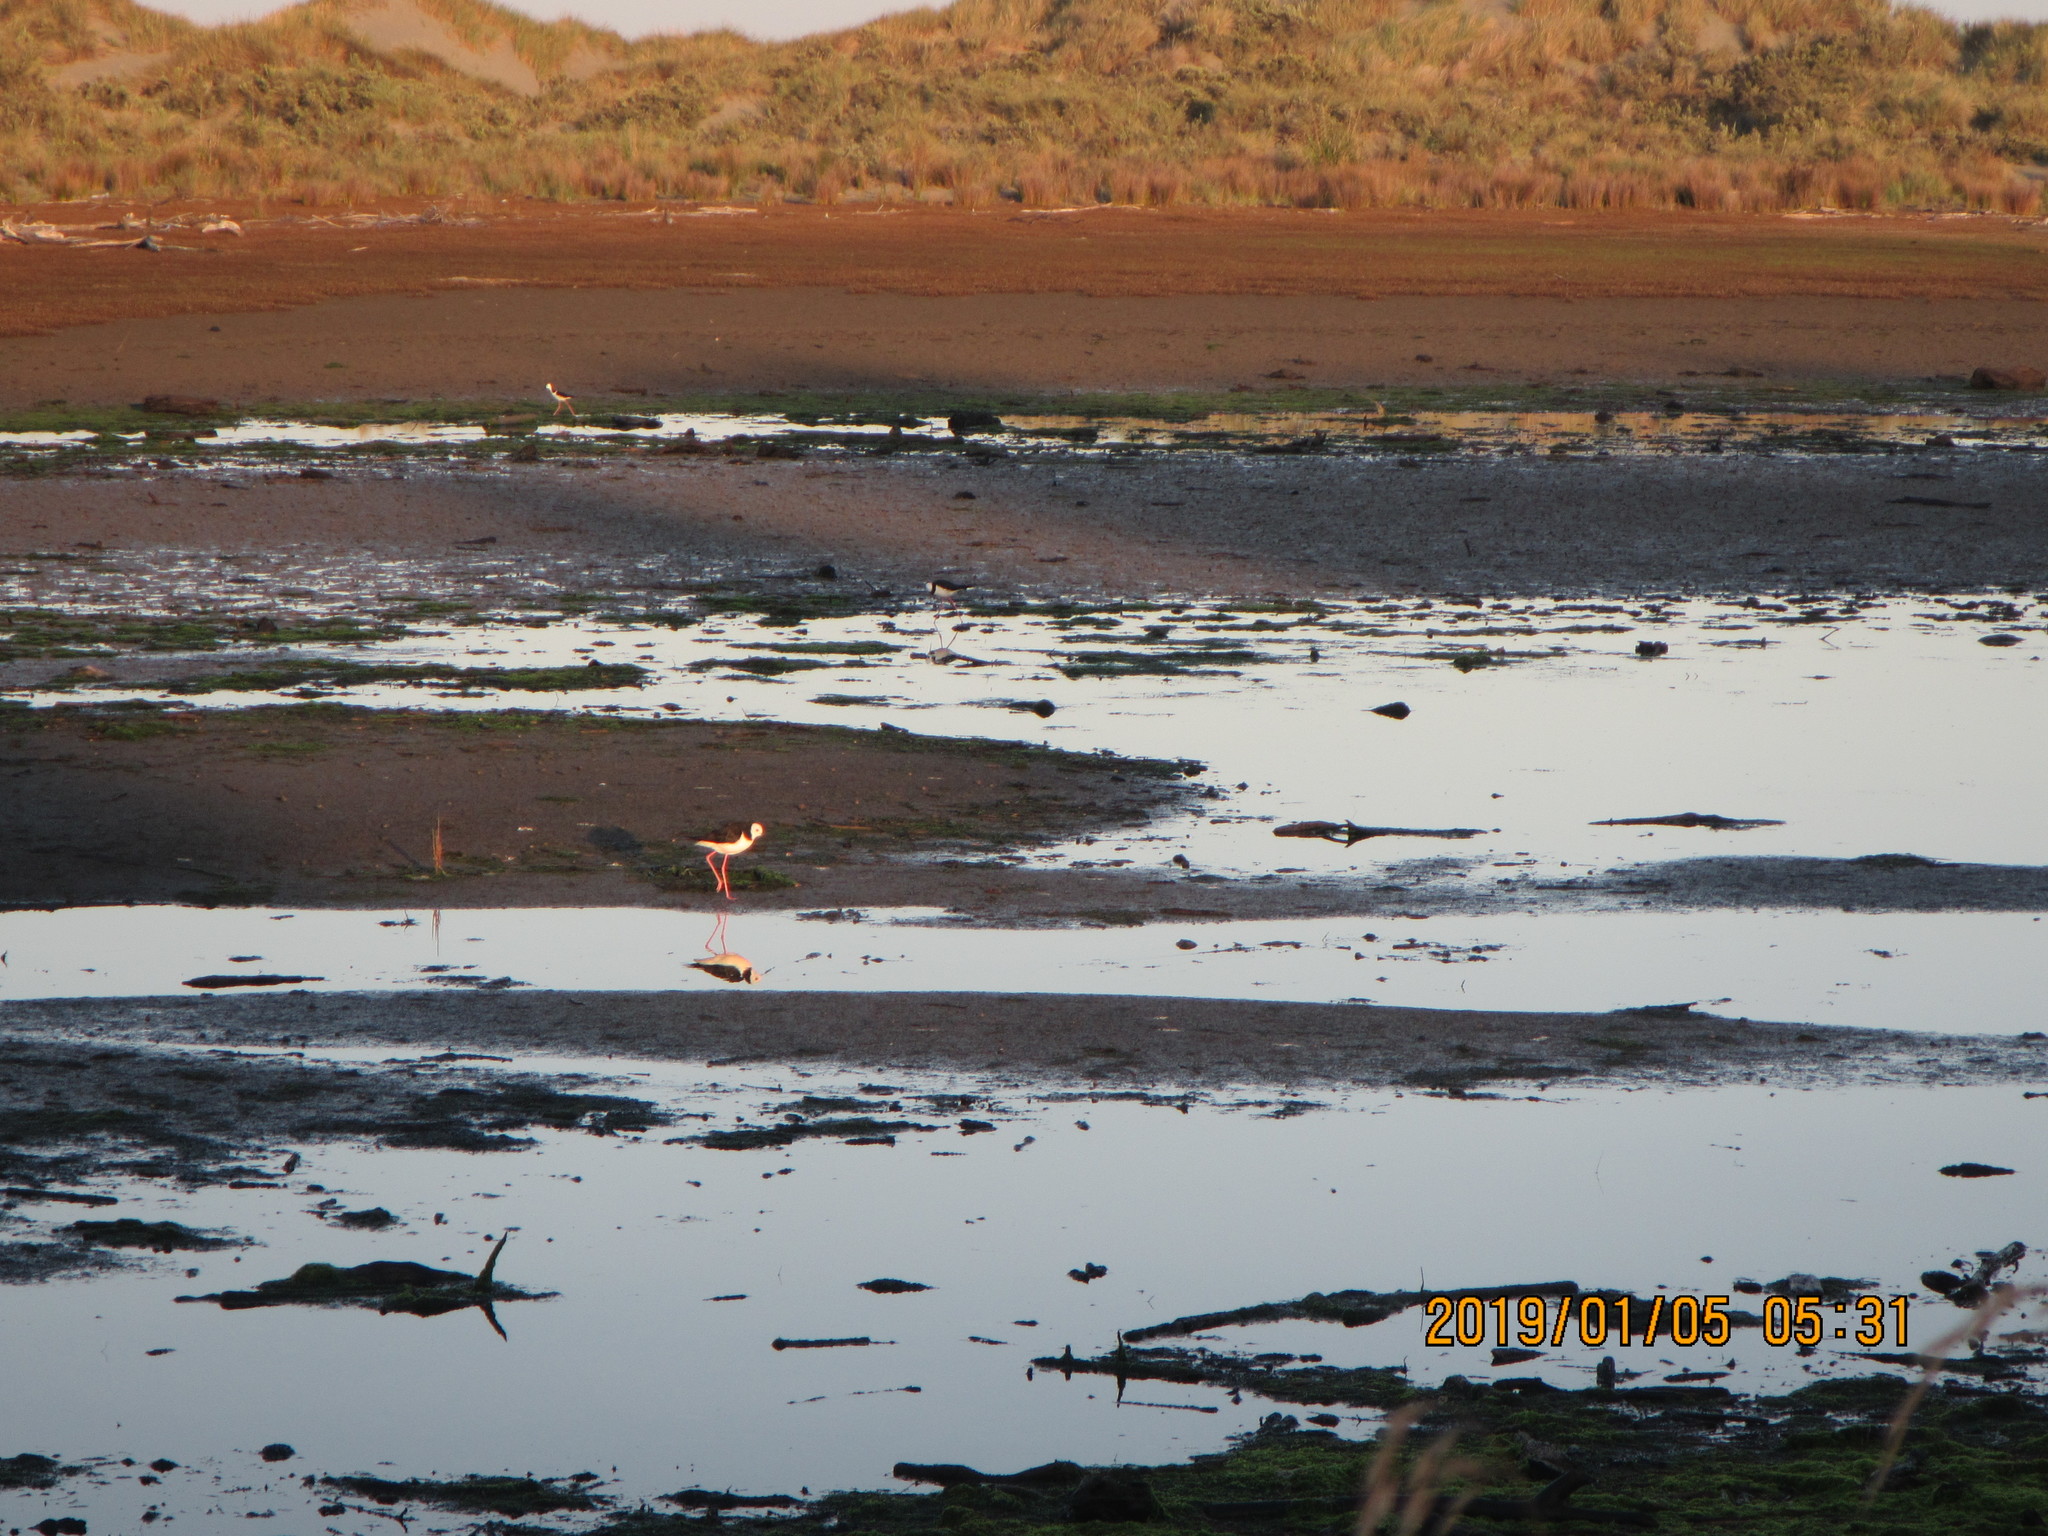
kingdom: Animalia
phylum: Chordata
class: Aves
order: Charadriiformes
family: Recurvirostridae
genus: Himantopus
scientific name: Himantopus leucocephalus
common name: White-headed stilt
